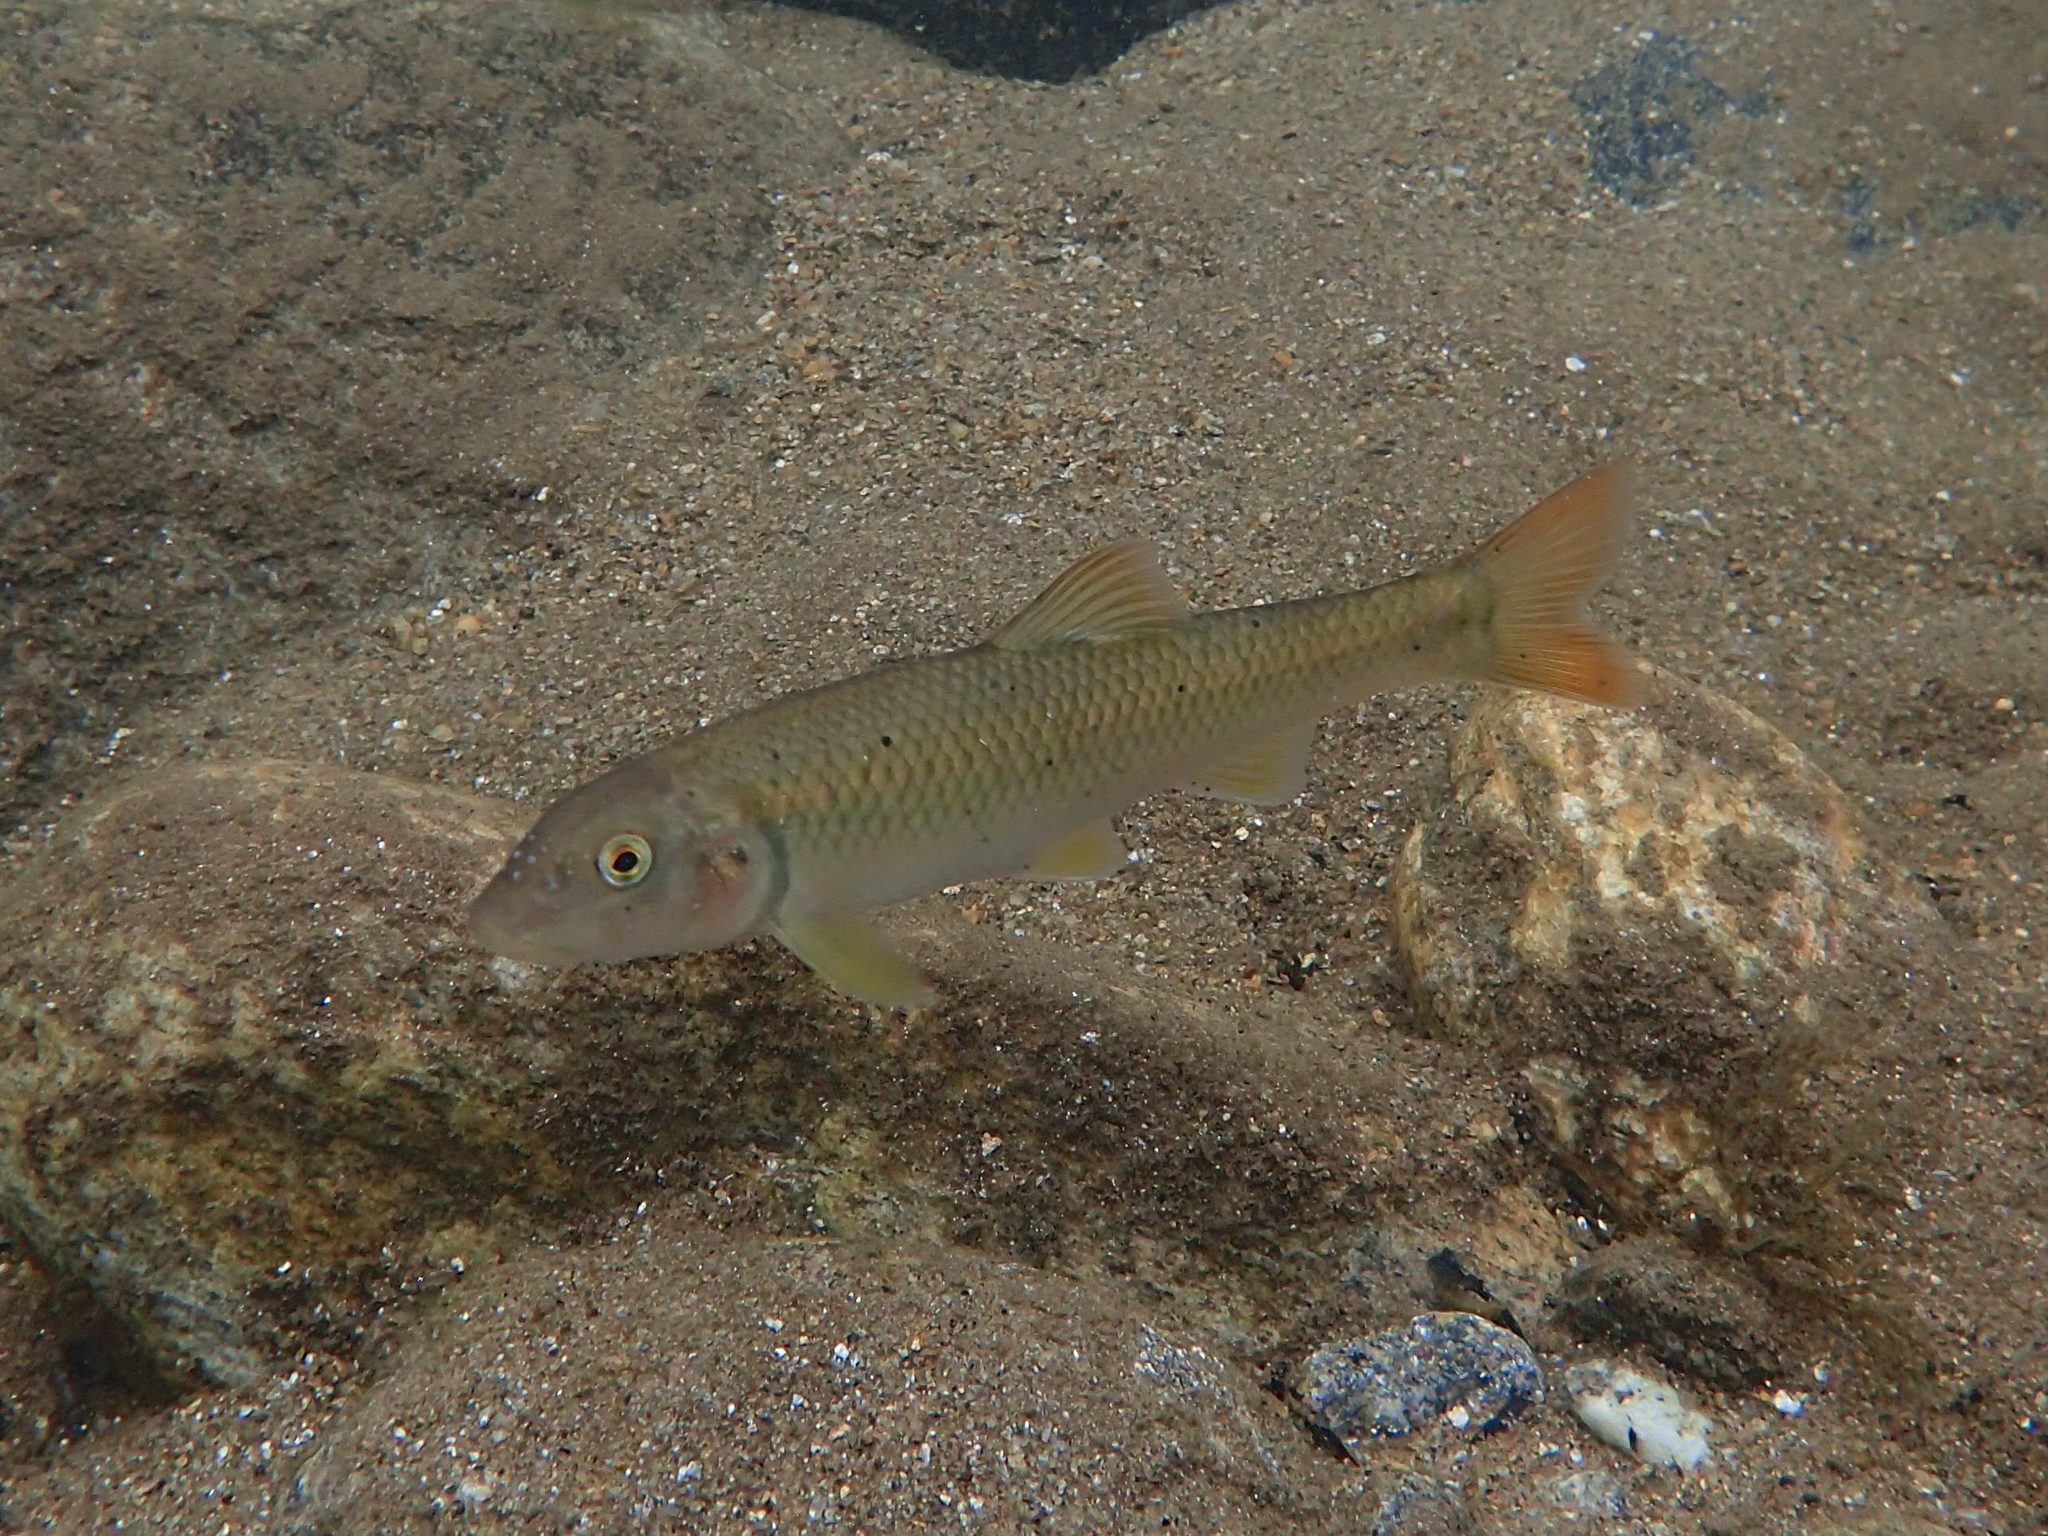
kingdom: Animalia
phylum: Chordata
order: Cypriniformes
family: Cyprinidae
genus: Nocomis
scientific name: Nocomis micropogon
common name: River chub
